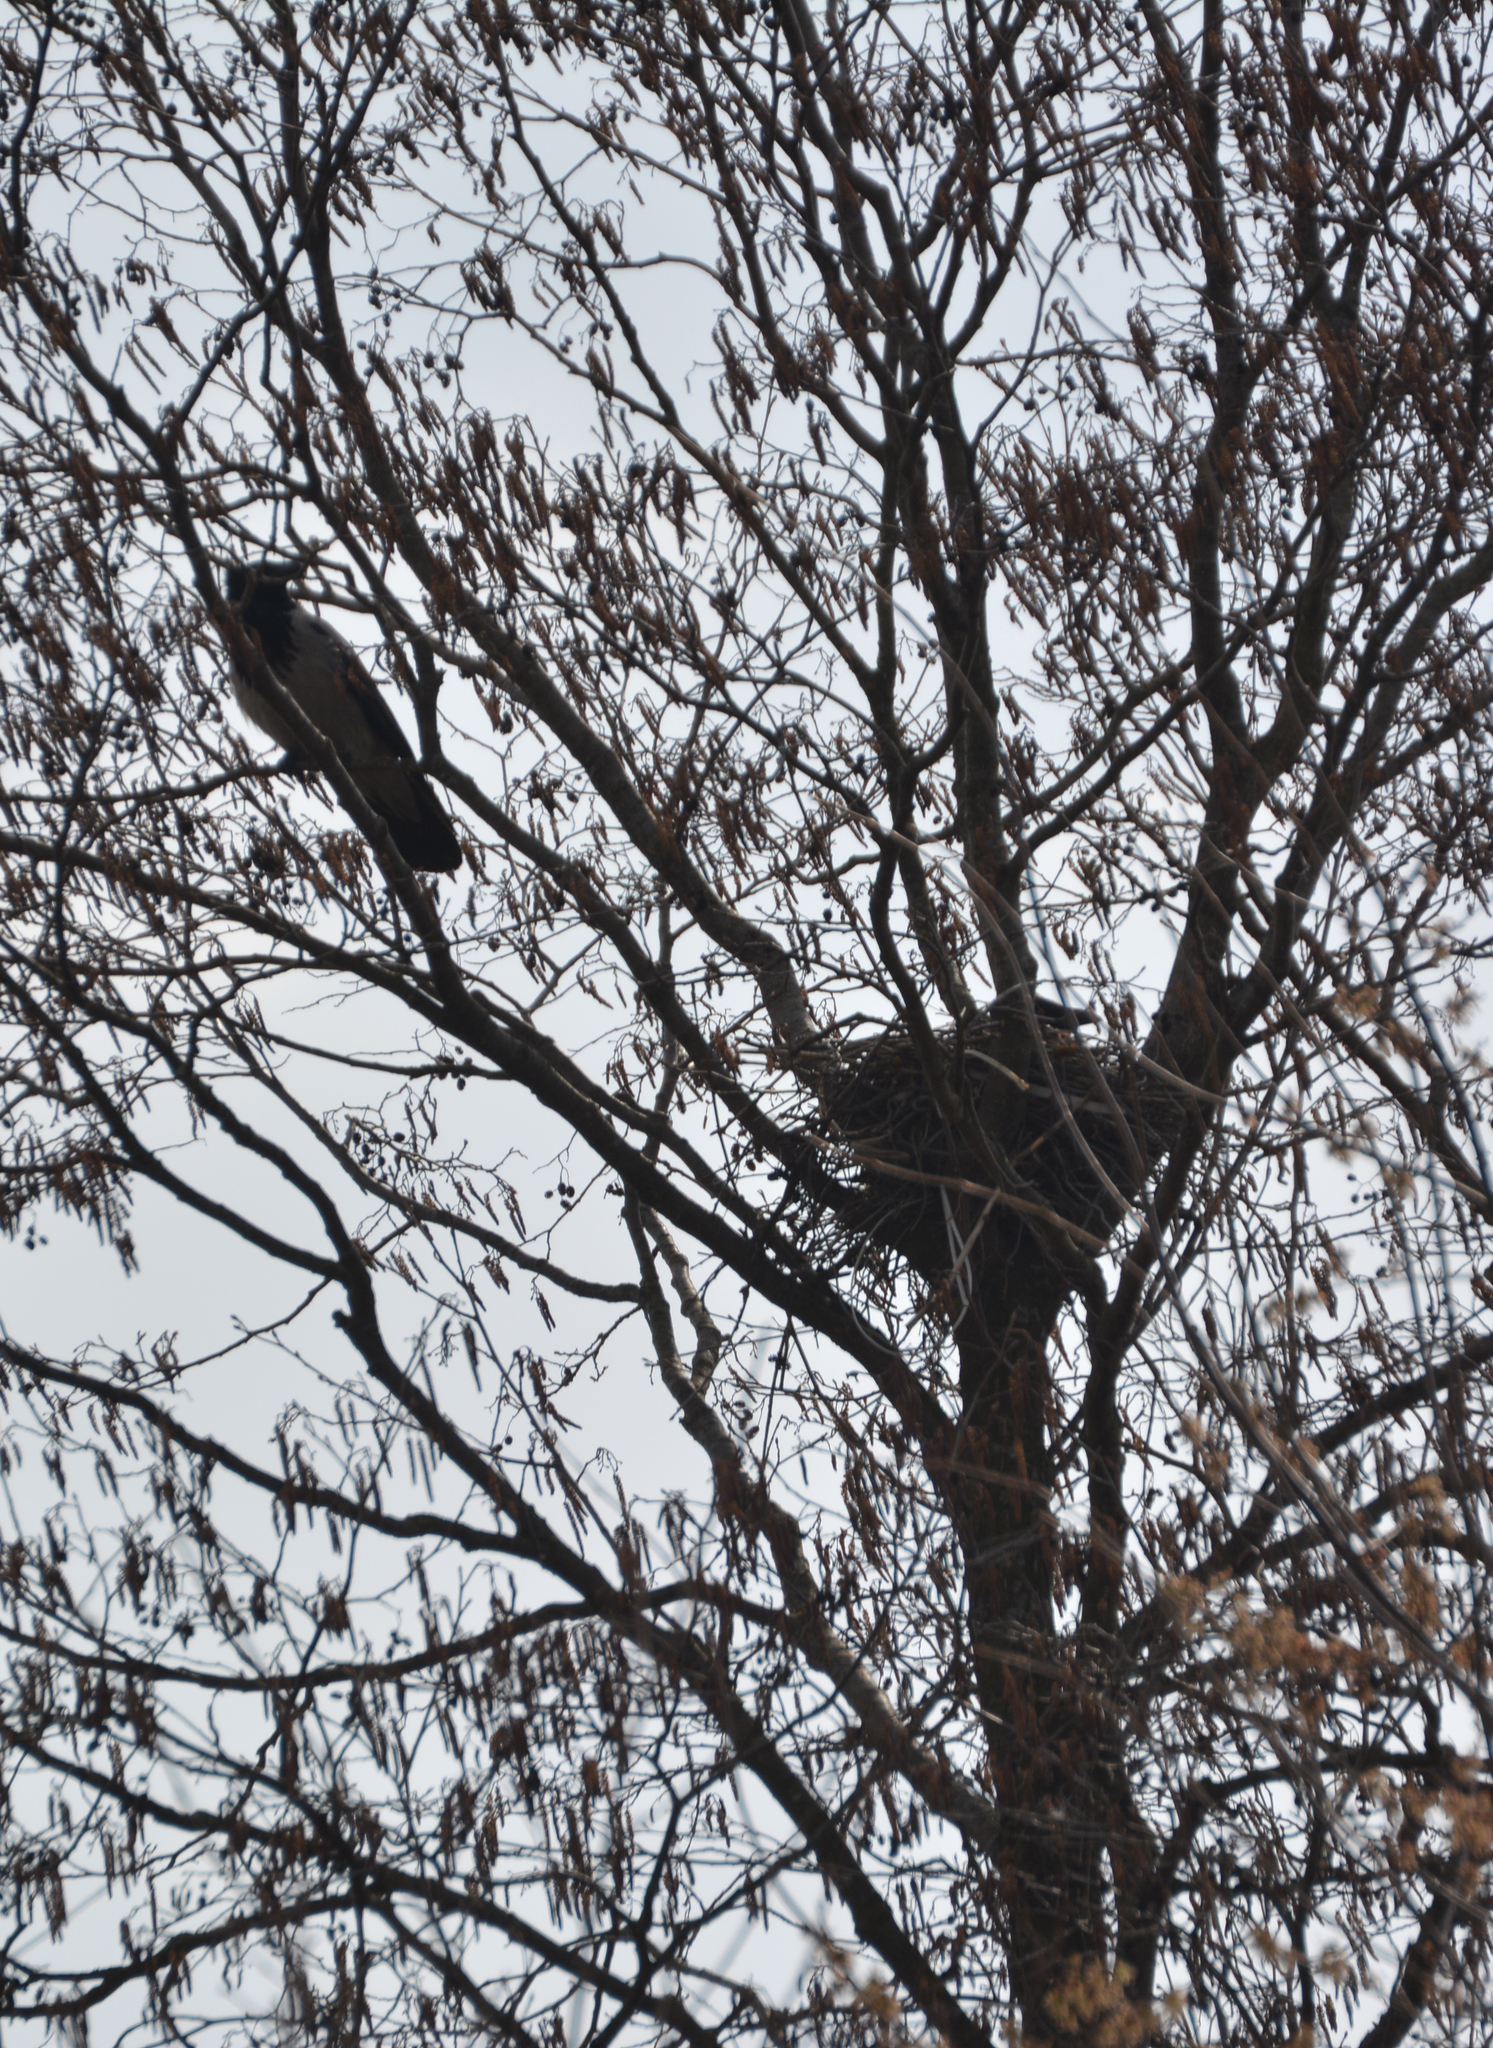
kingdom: Animalia
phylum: Chordata
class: Aves
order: Passeriformes
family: Corvidae
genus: Corvus
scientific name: Corvus cornix
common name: Hooded crow
